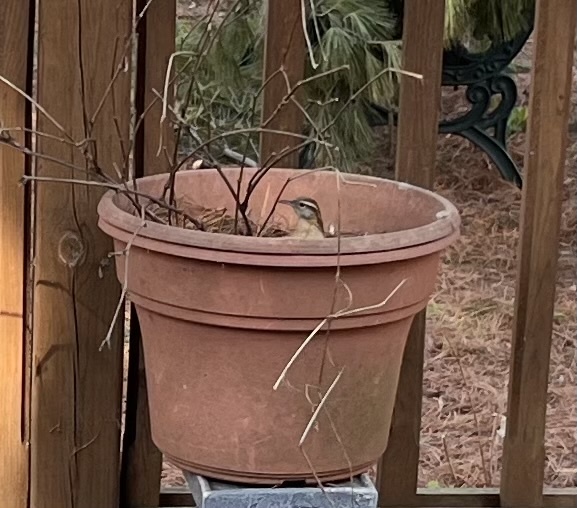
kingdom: Animalia
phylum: Chordata
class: Aves
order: Passeriformes
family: Troglodytidae
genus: Thryothorus
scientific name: Thryothorus ludovicianus
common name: Carolina wren
